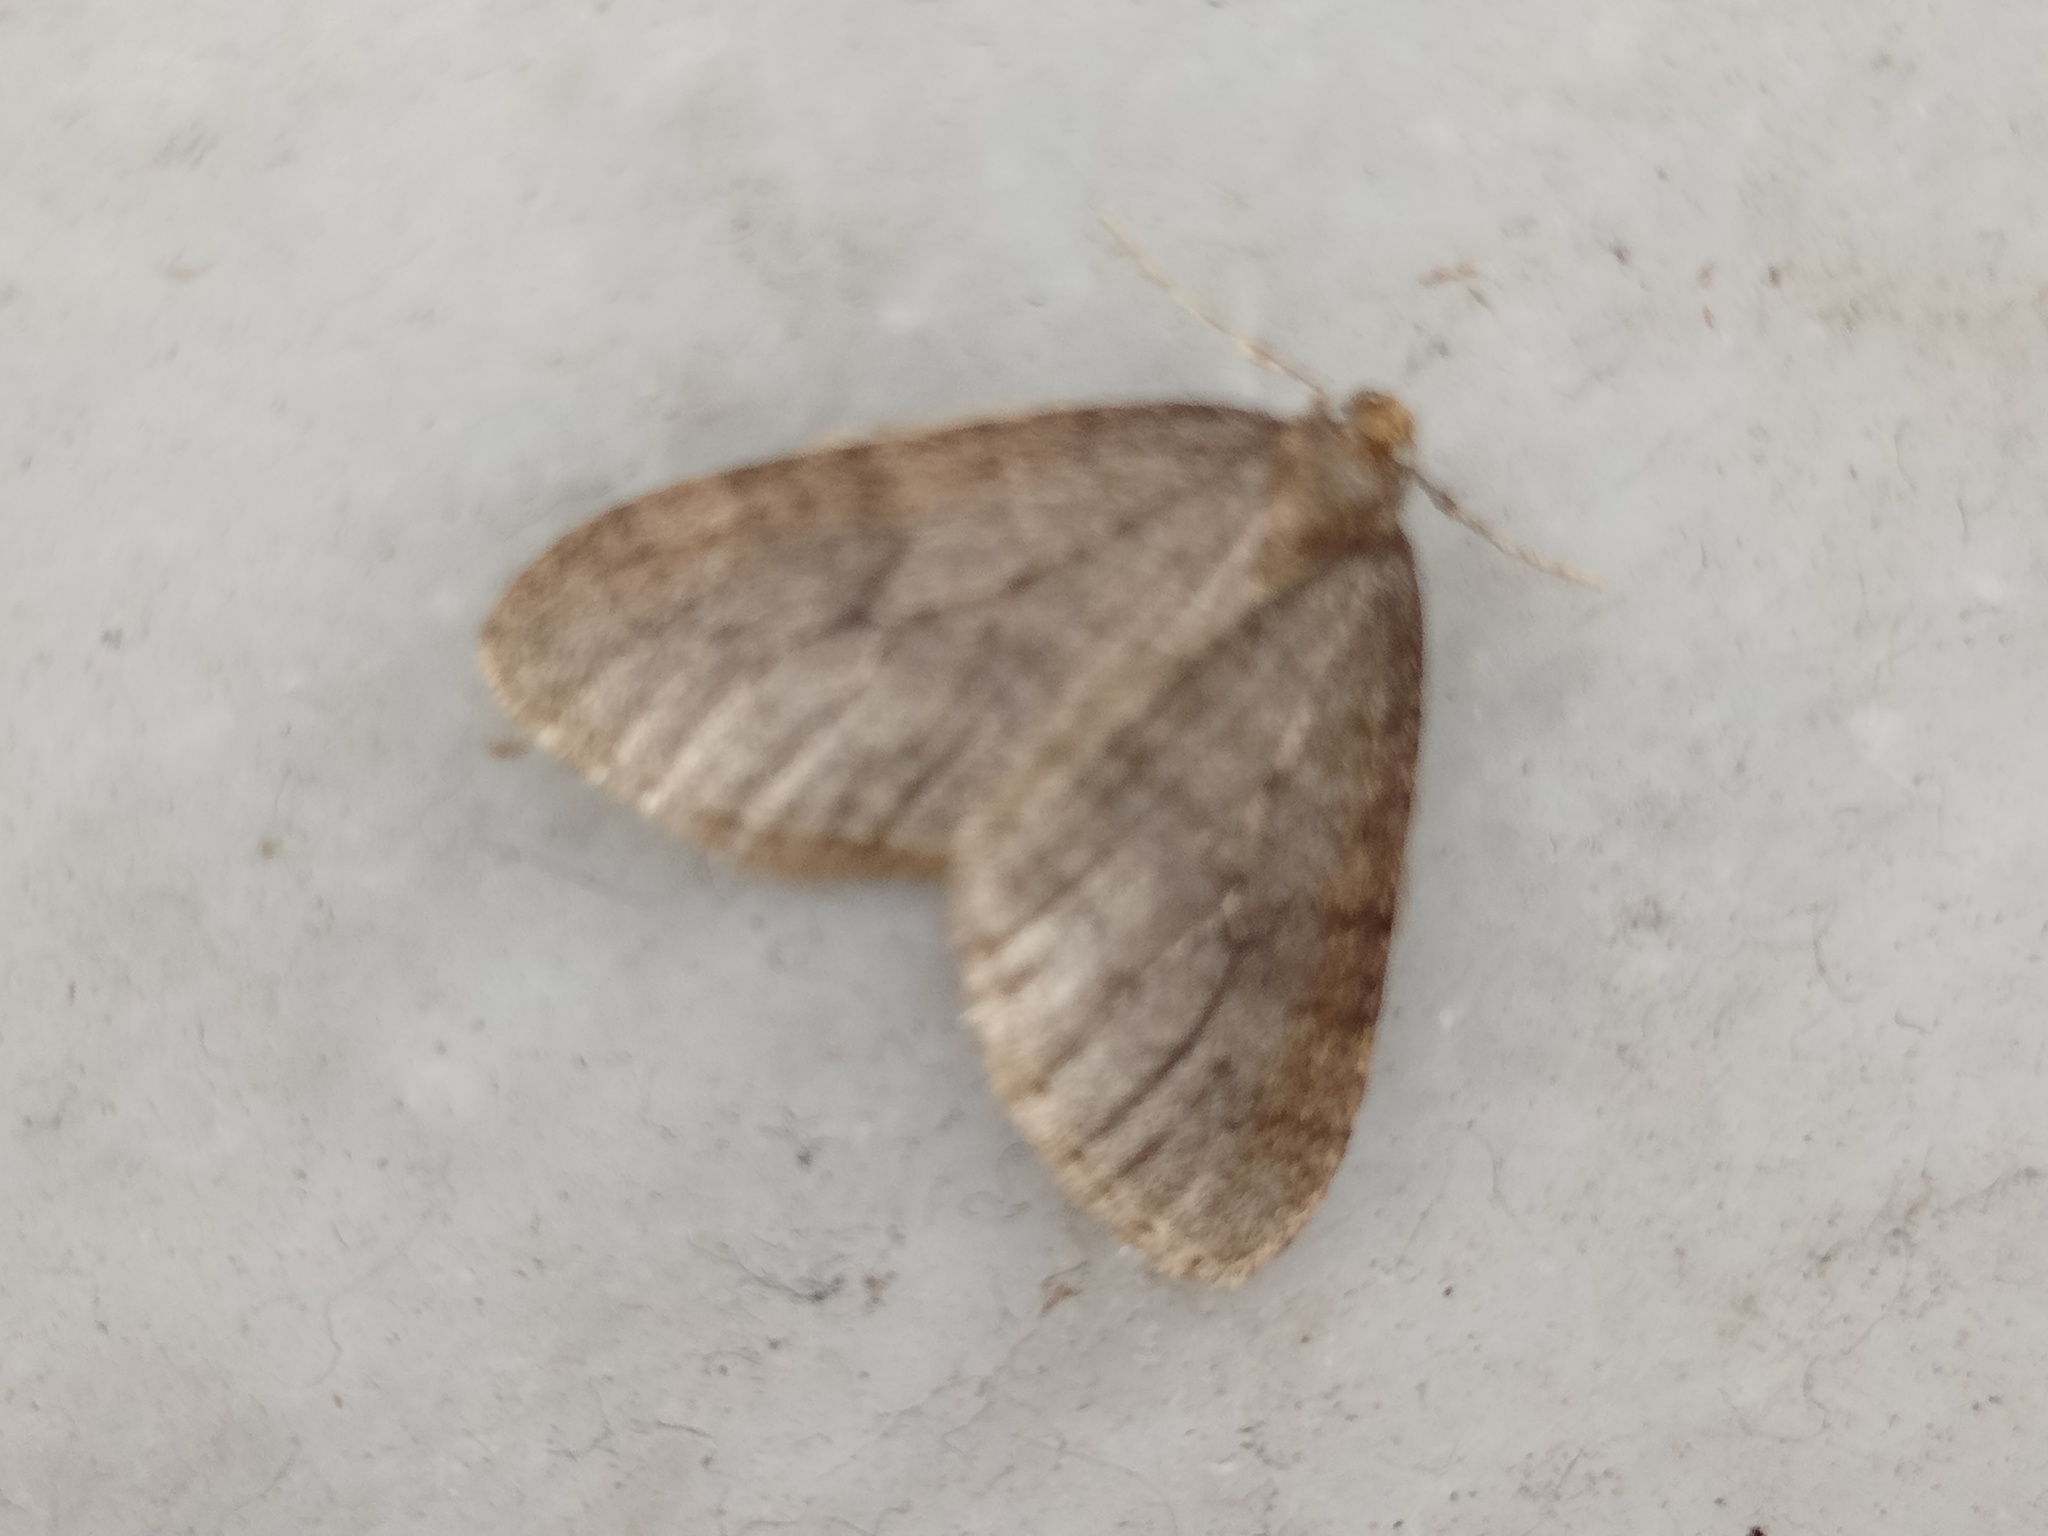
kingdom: Animalia
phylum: Arthropoda
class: Insecta
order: Lepidoptera
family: Geometridae
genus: Operophtera
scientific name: Operophtera brumata
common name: Winter moth
